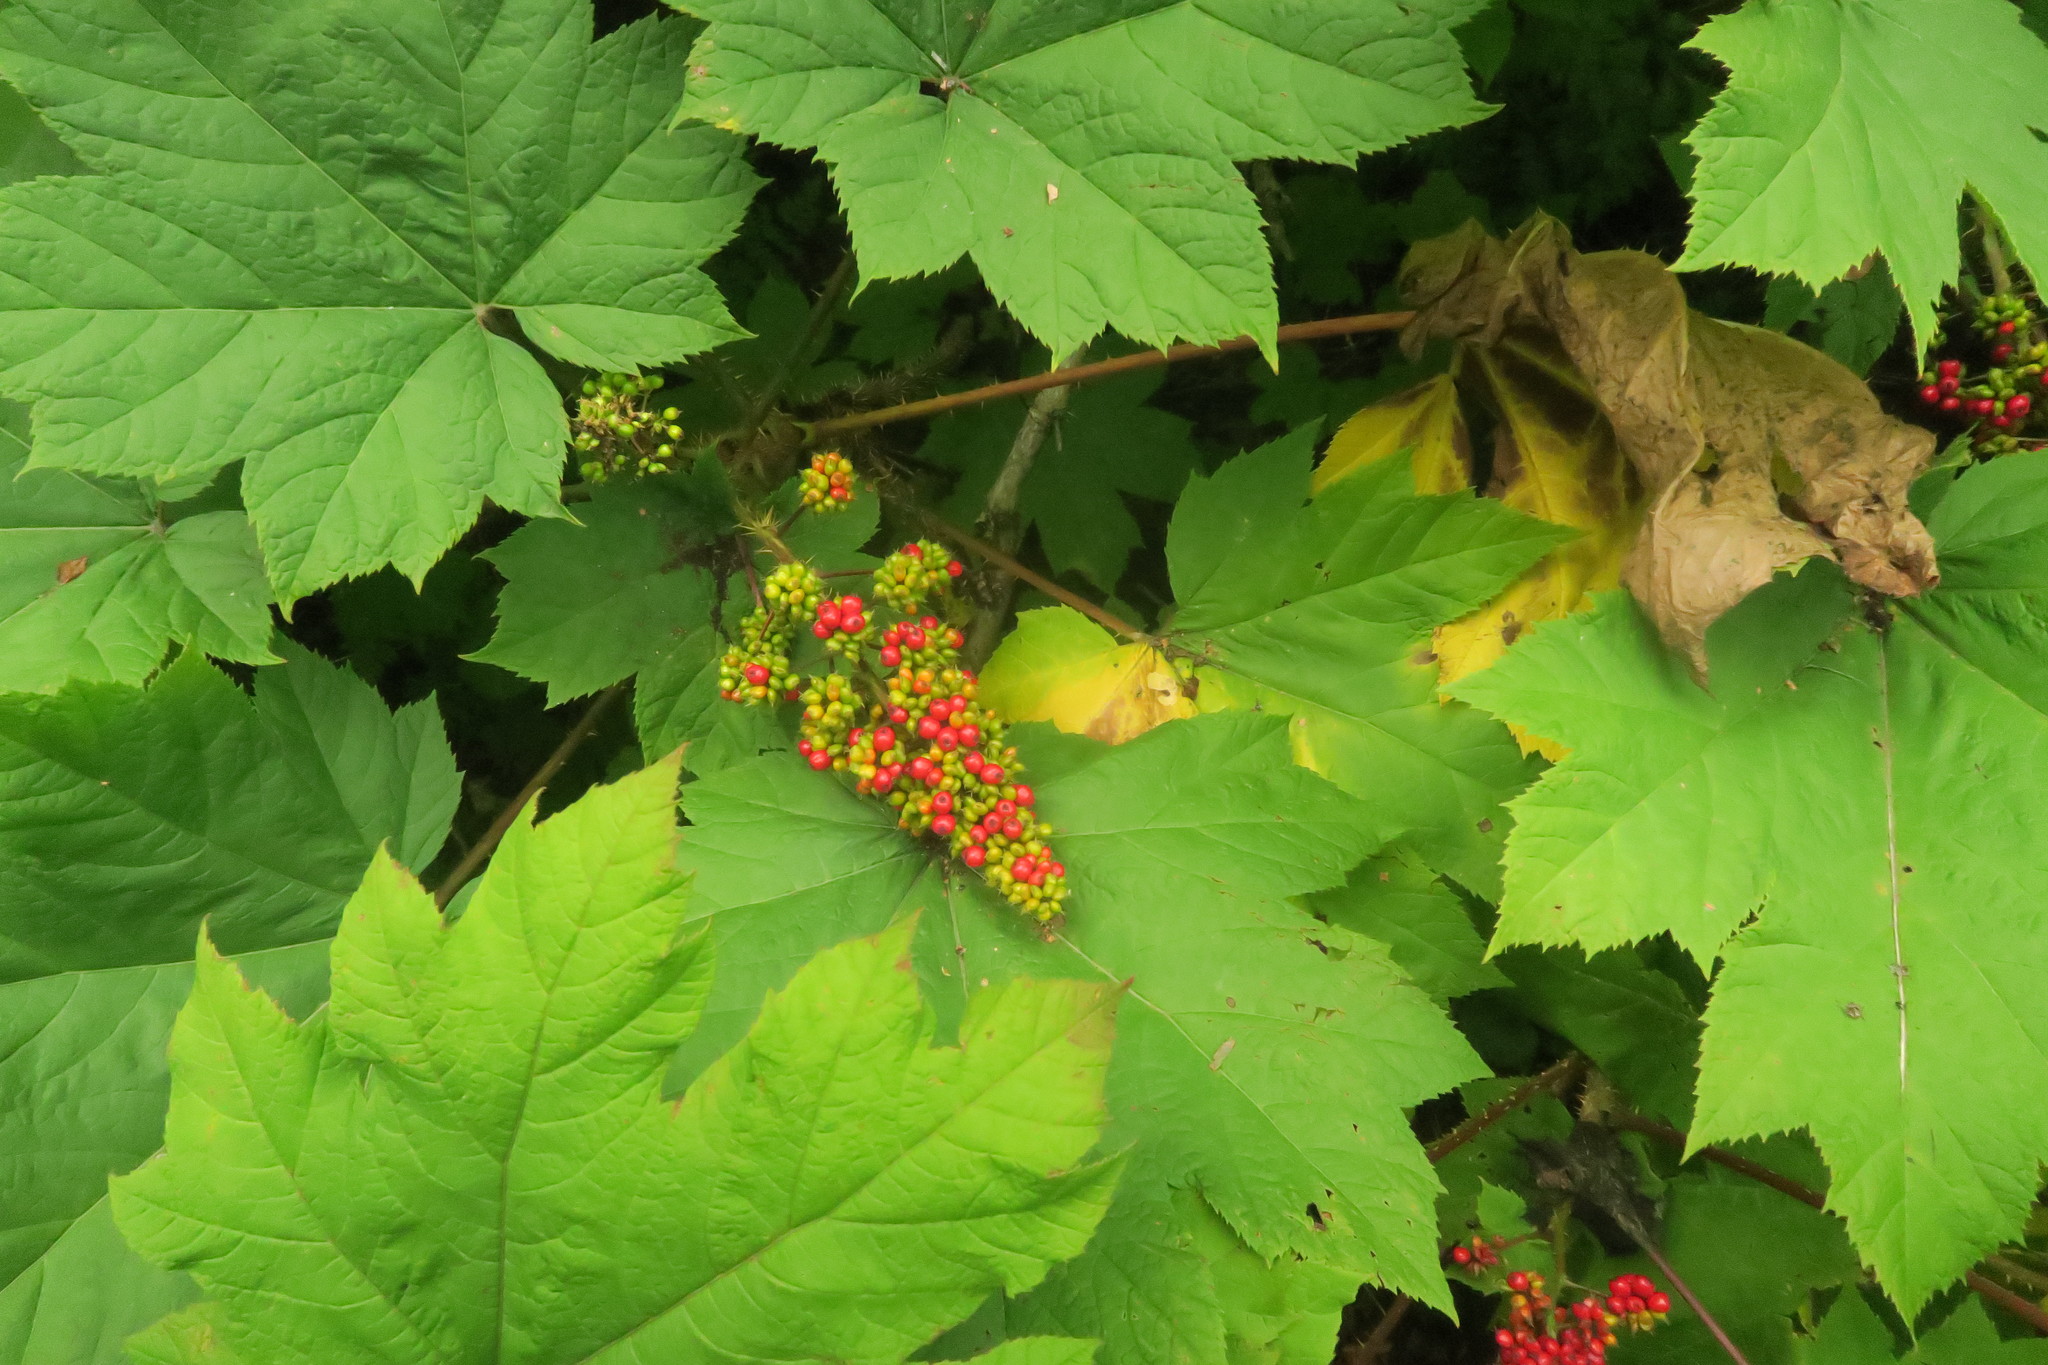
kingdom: Plantae
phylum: Tracheophyta
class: Magnoliopsida
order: Apiales
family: Araliaceae
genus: Oplopanax
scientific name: Oplopanax horridus
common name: Devil's walking-stick
